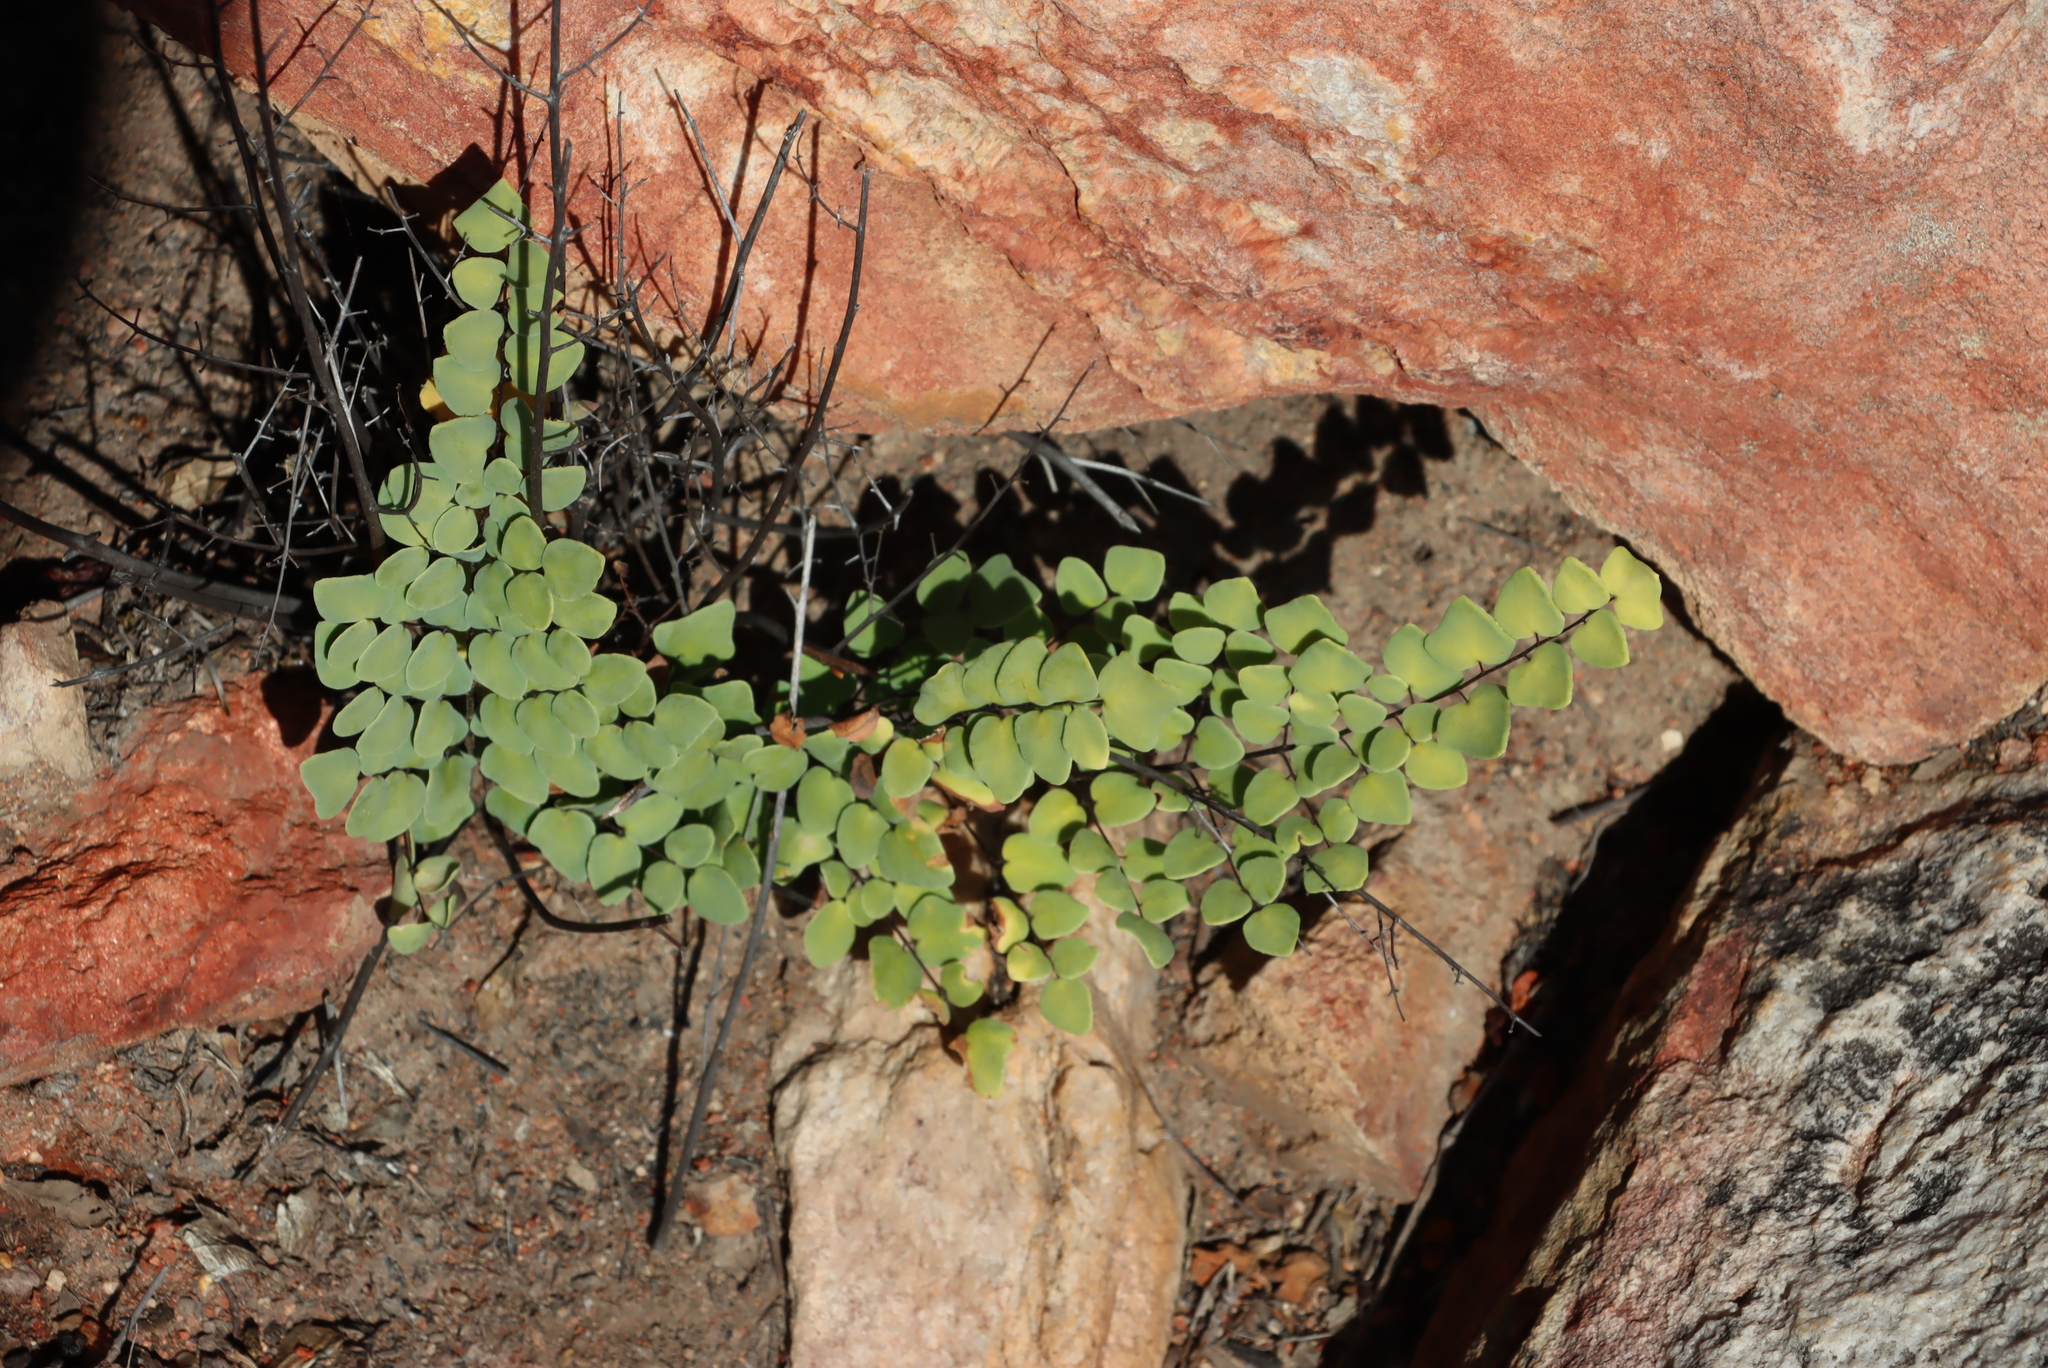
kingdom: Plantae
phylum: Tracheophyta
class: Polypodiopsida
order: Polypodiales
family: Pteridaceae
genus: Pellaea
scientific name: Pellaea calomelanos
